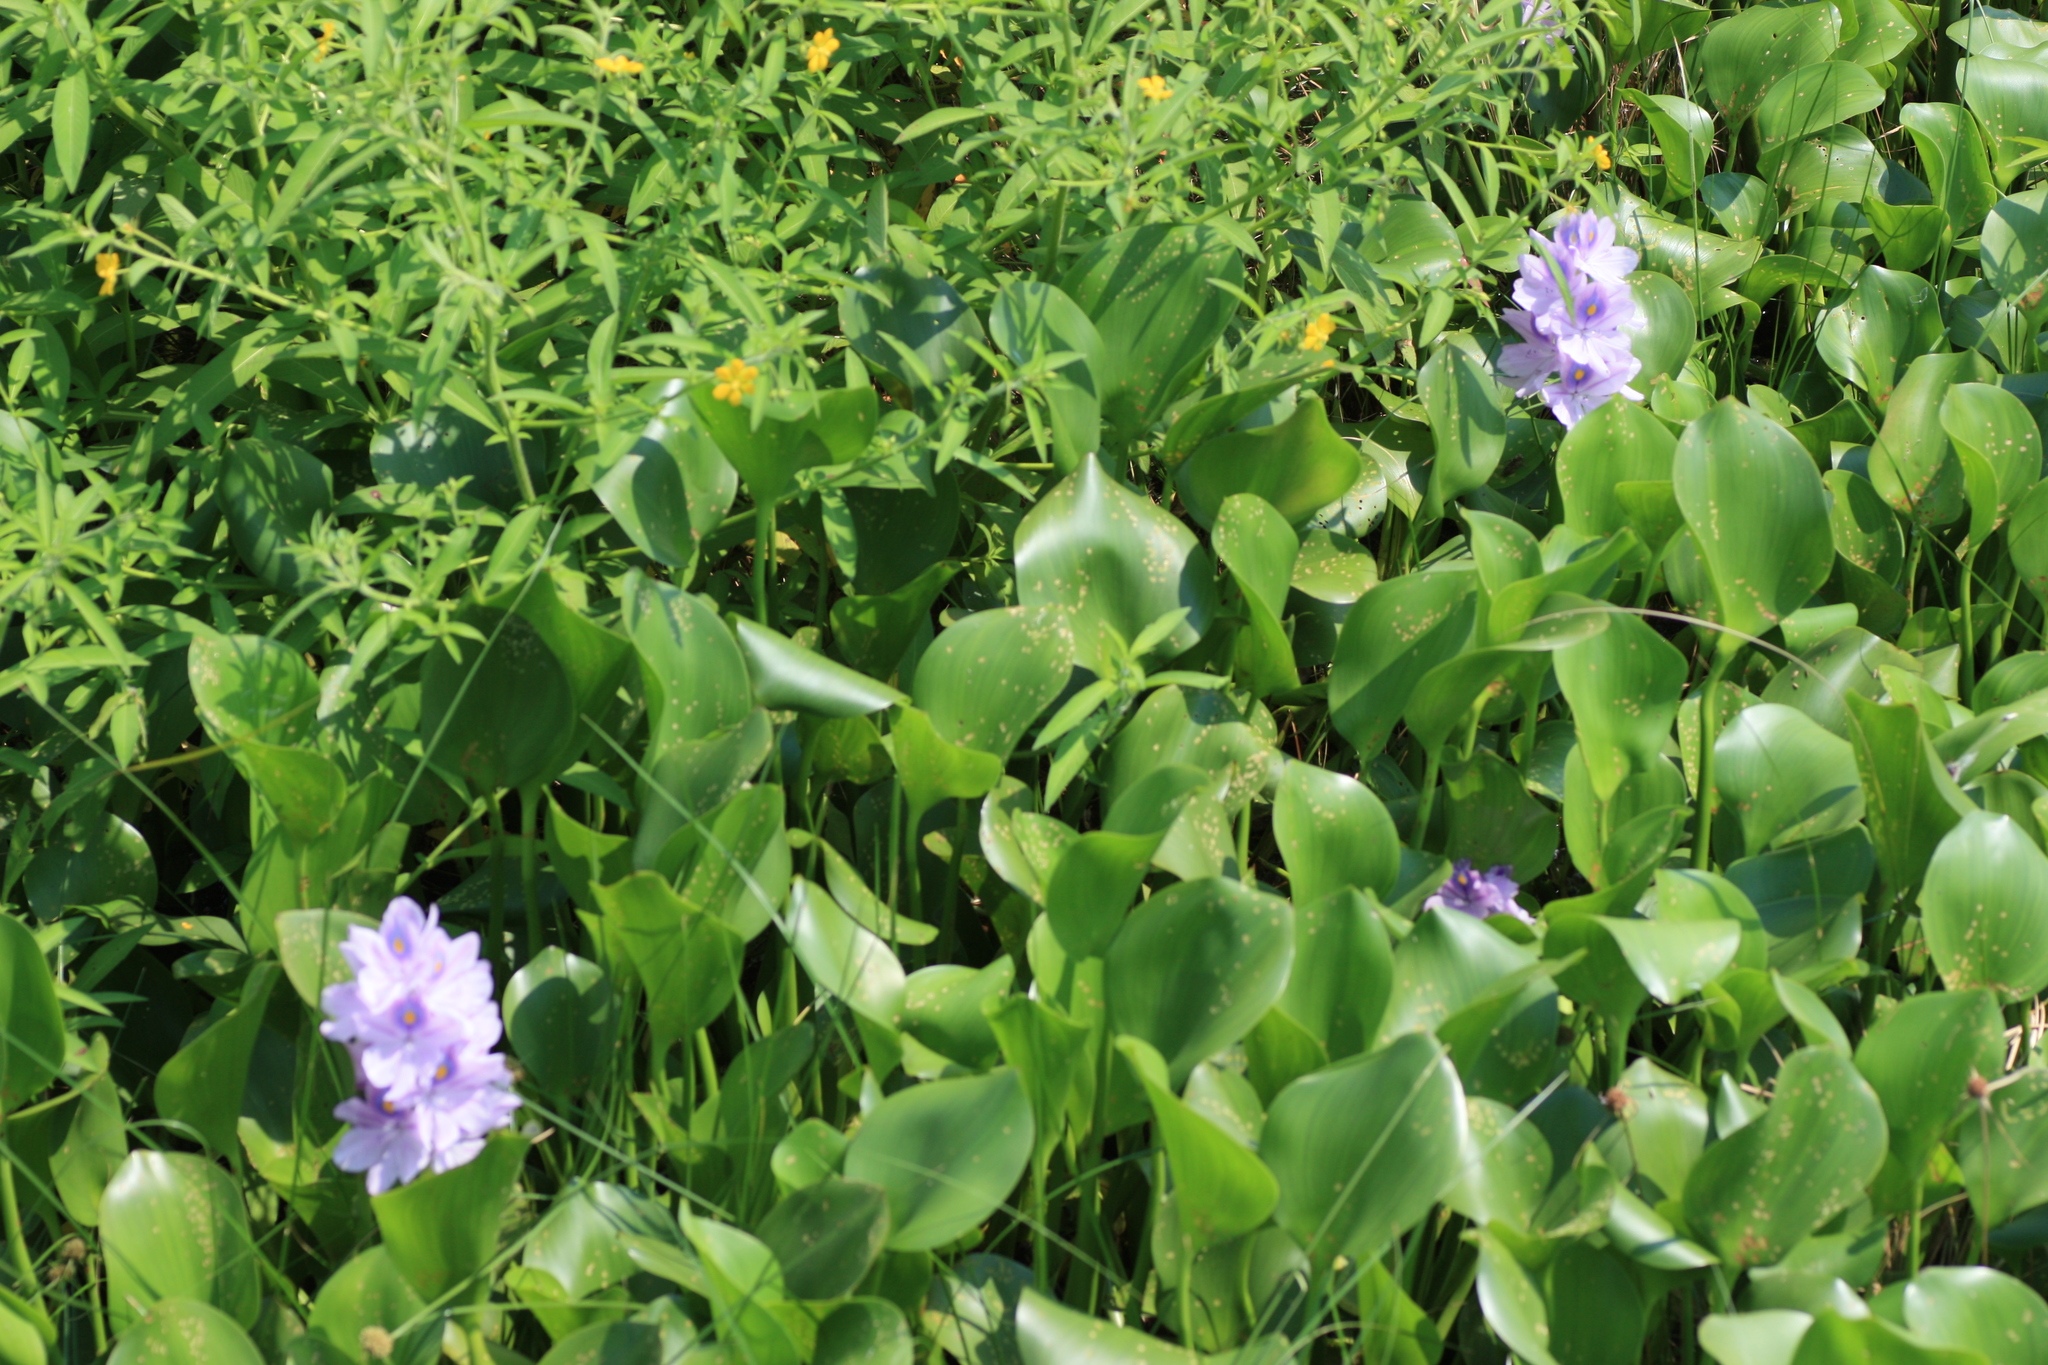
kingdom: Plantae
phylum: Tracheophyta
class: Liliopsida
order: Commelinales
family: Pontederiaceae
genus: Pontederia
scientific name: Pontederia crassipes
